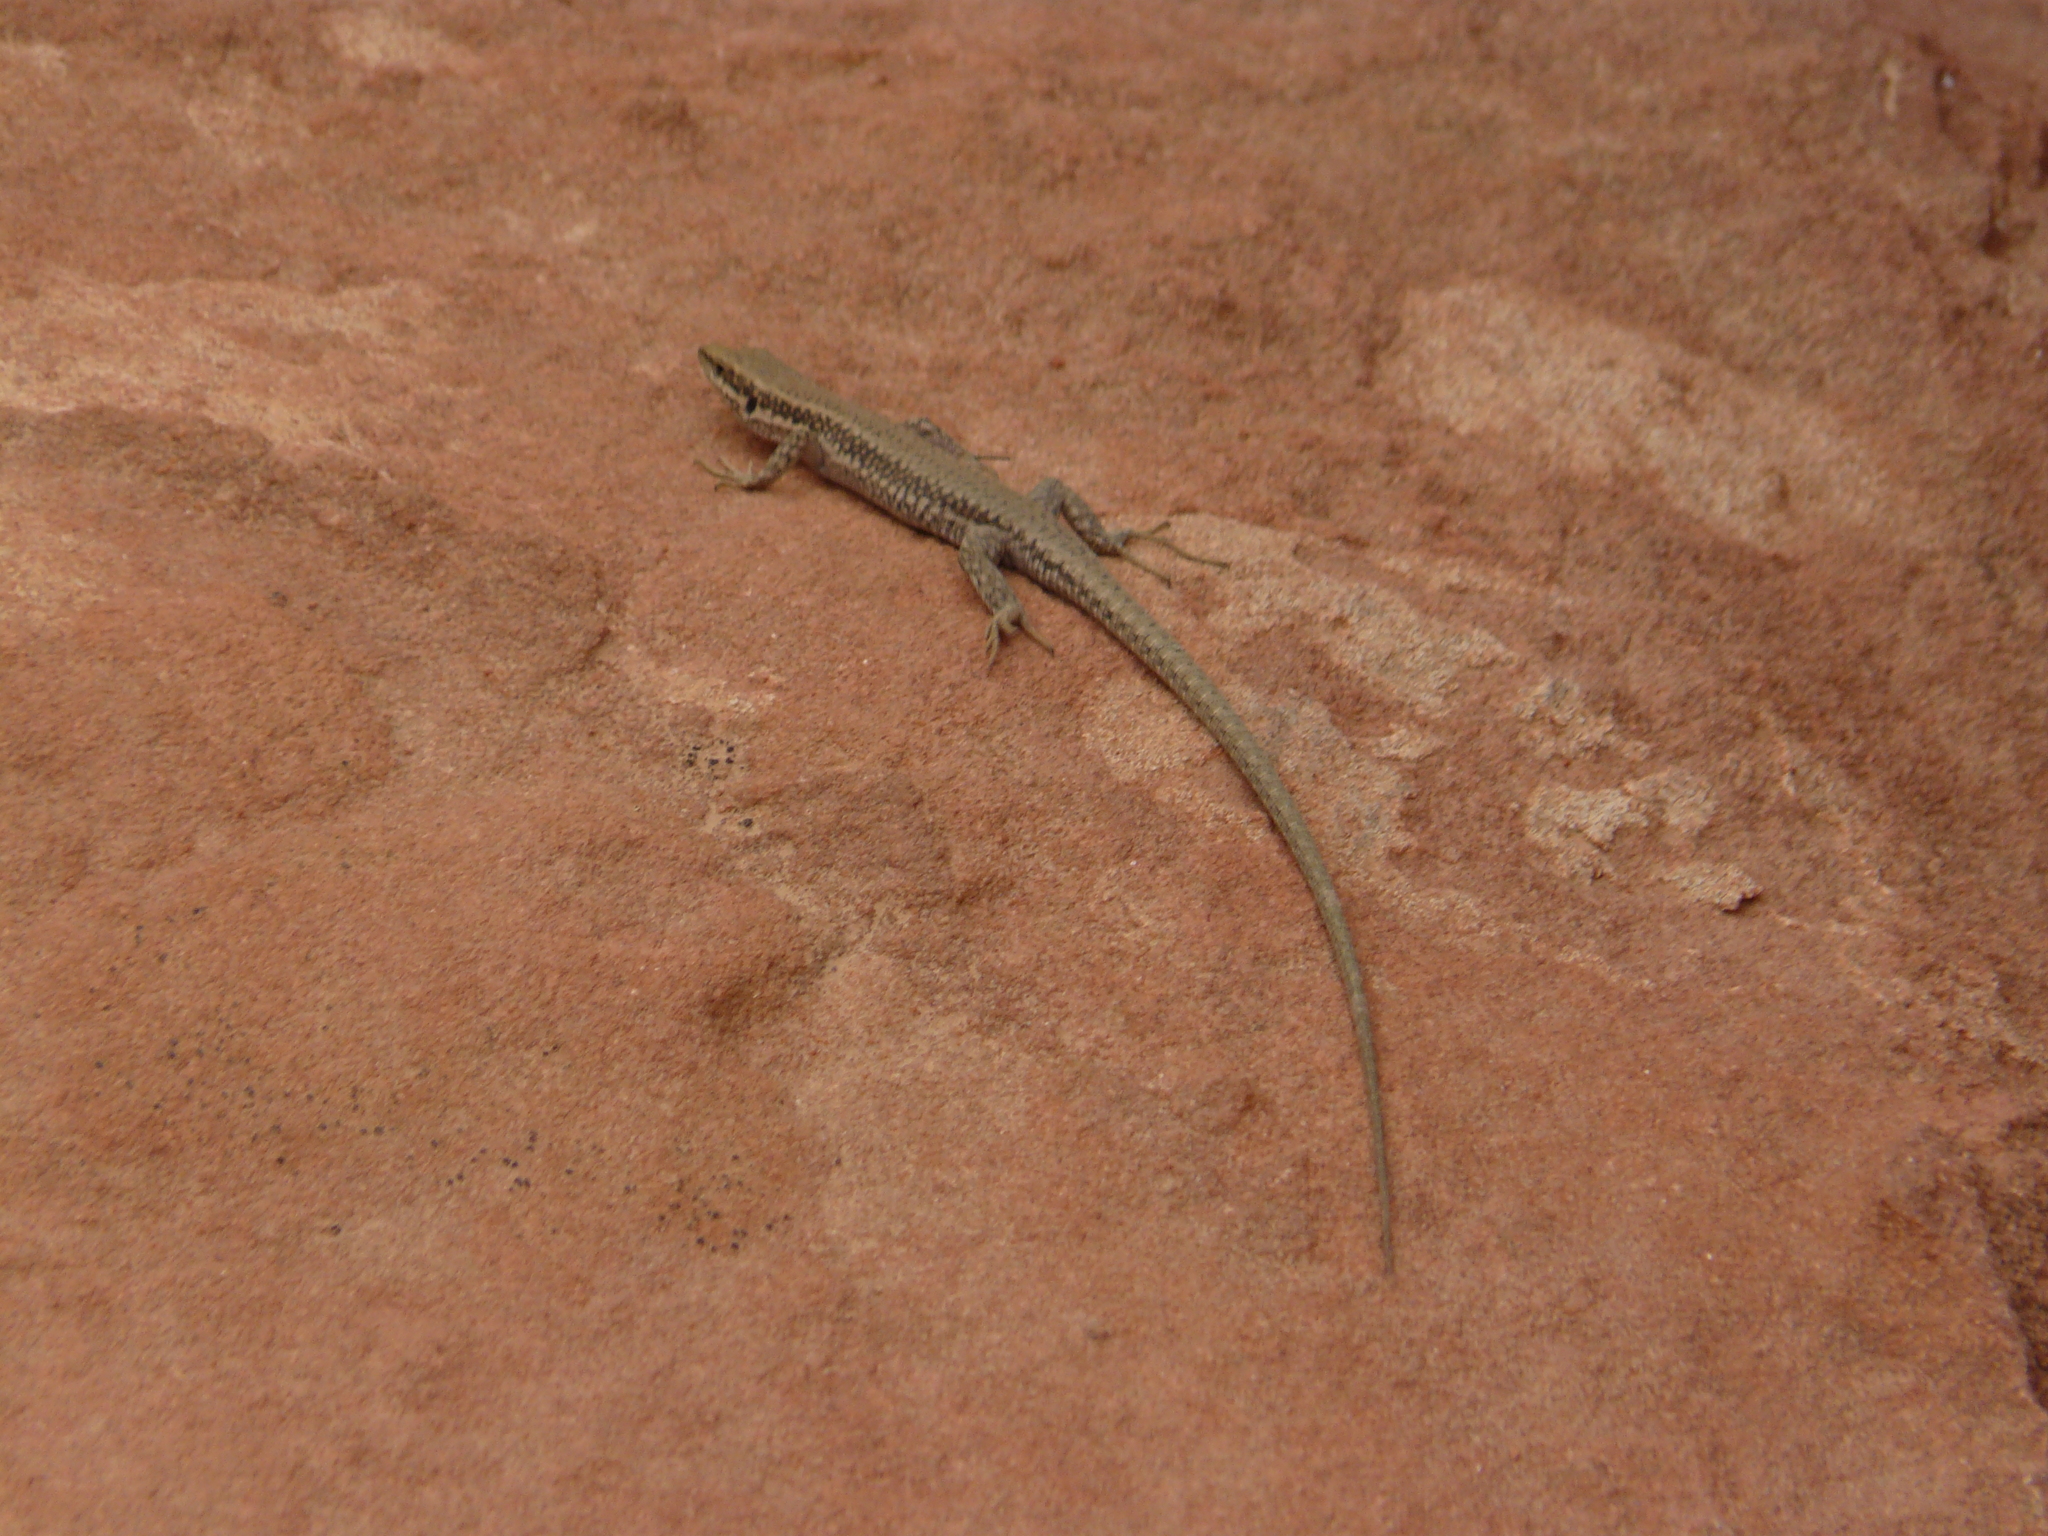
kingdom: Animalia
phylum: Chordata
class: Squamata
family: Lacertidae
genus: Phoenicolacerta
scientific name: Phoenicolacerta kulzeri
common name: Kulzer’s rock lizard
